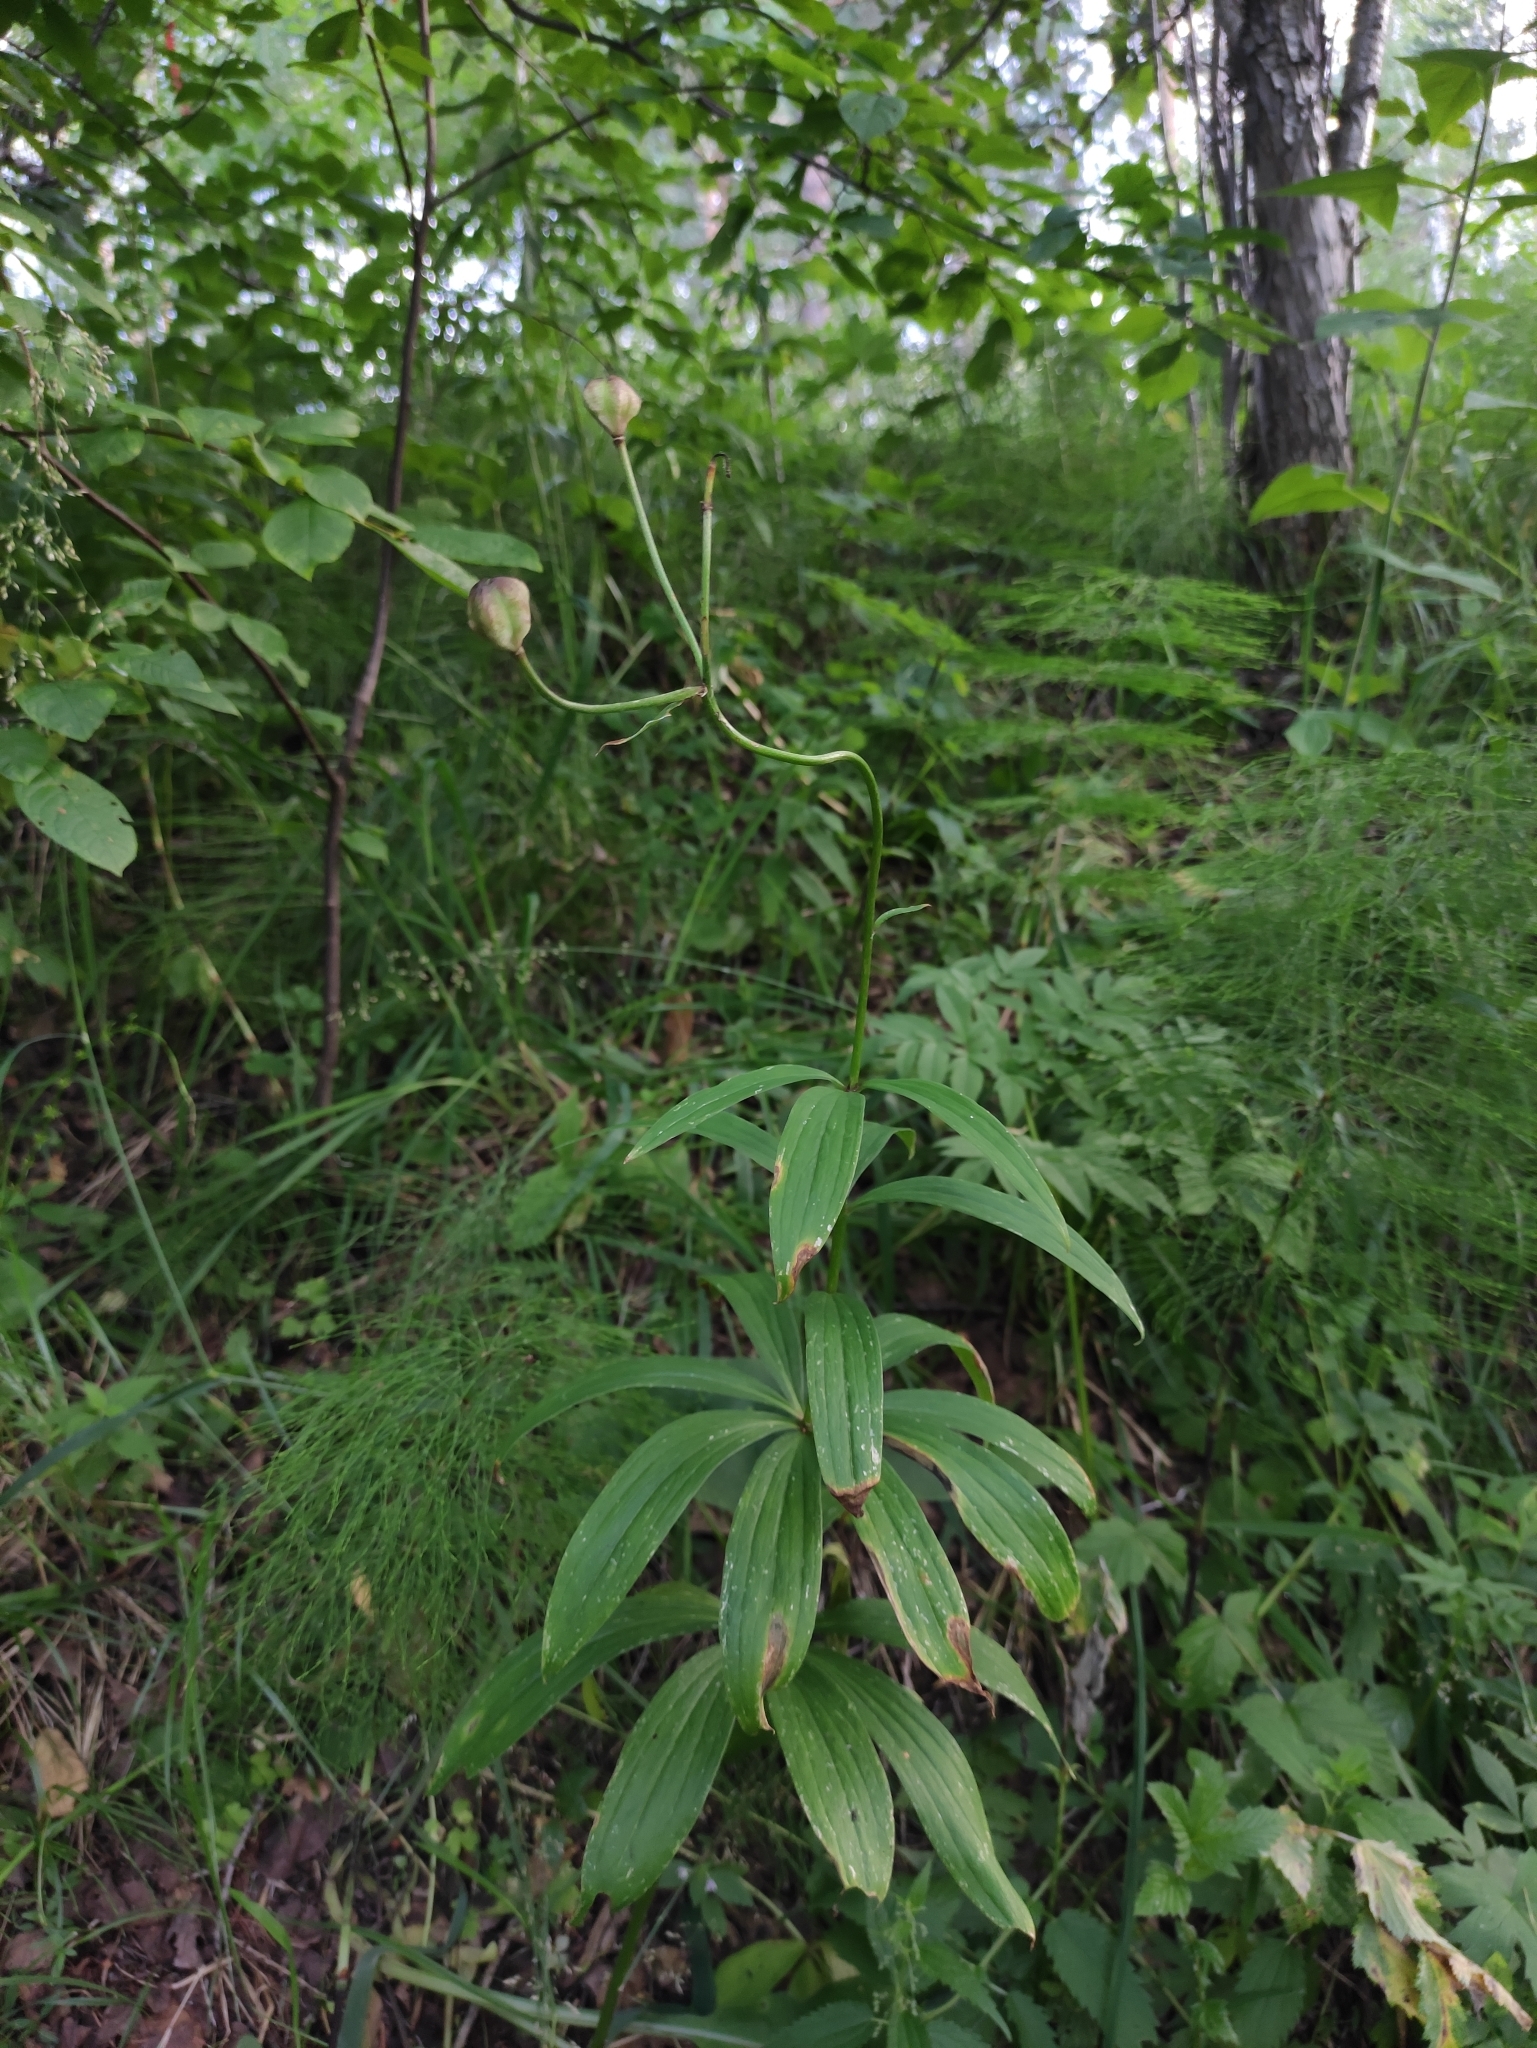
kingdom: Plantae
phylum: Tracheophyta
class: Liliopsida
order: Liliales
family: Liliaceae
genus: Lilium
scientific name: Lilium martagon
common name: Martagon lily
